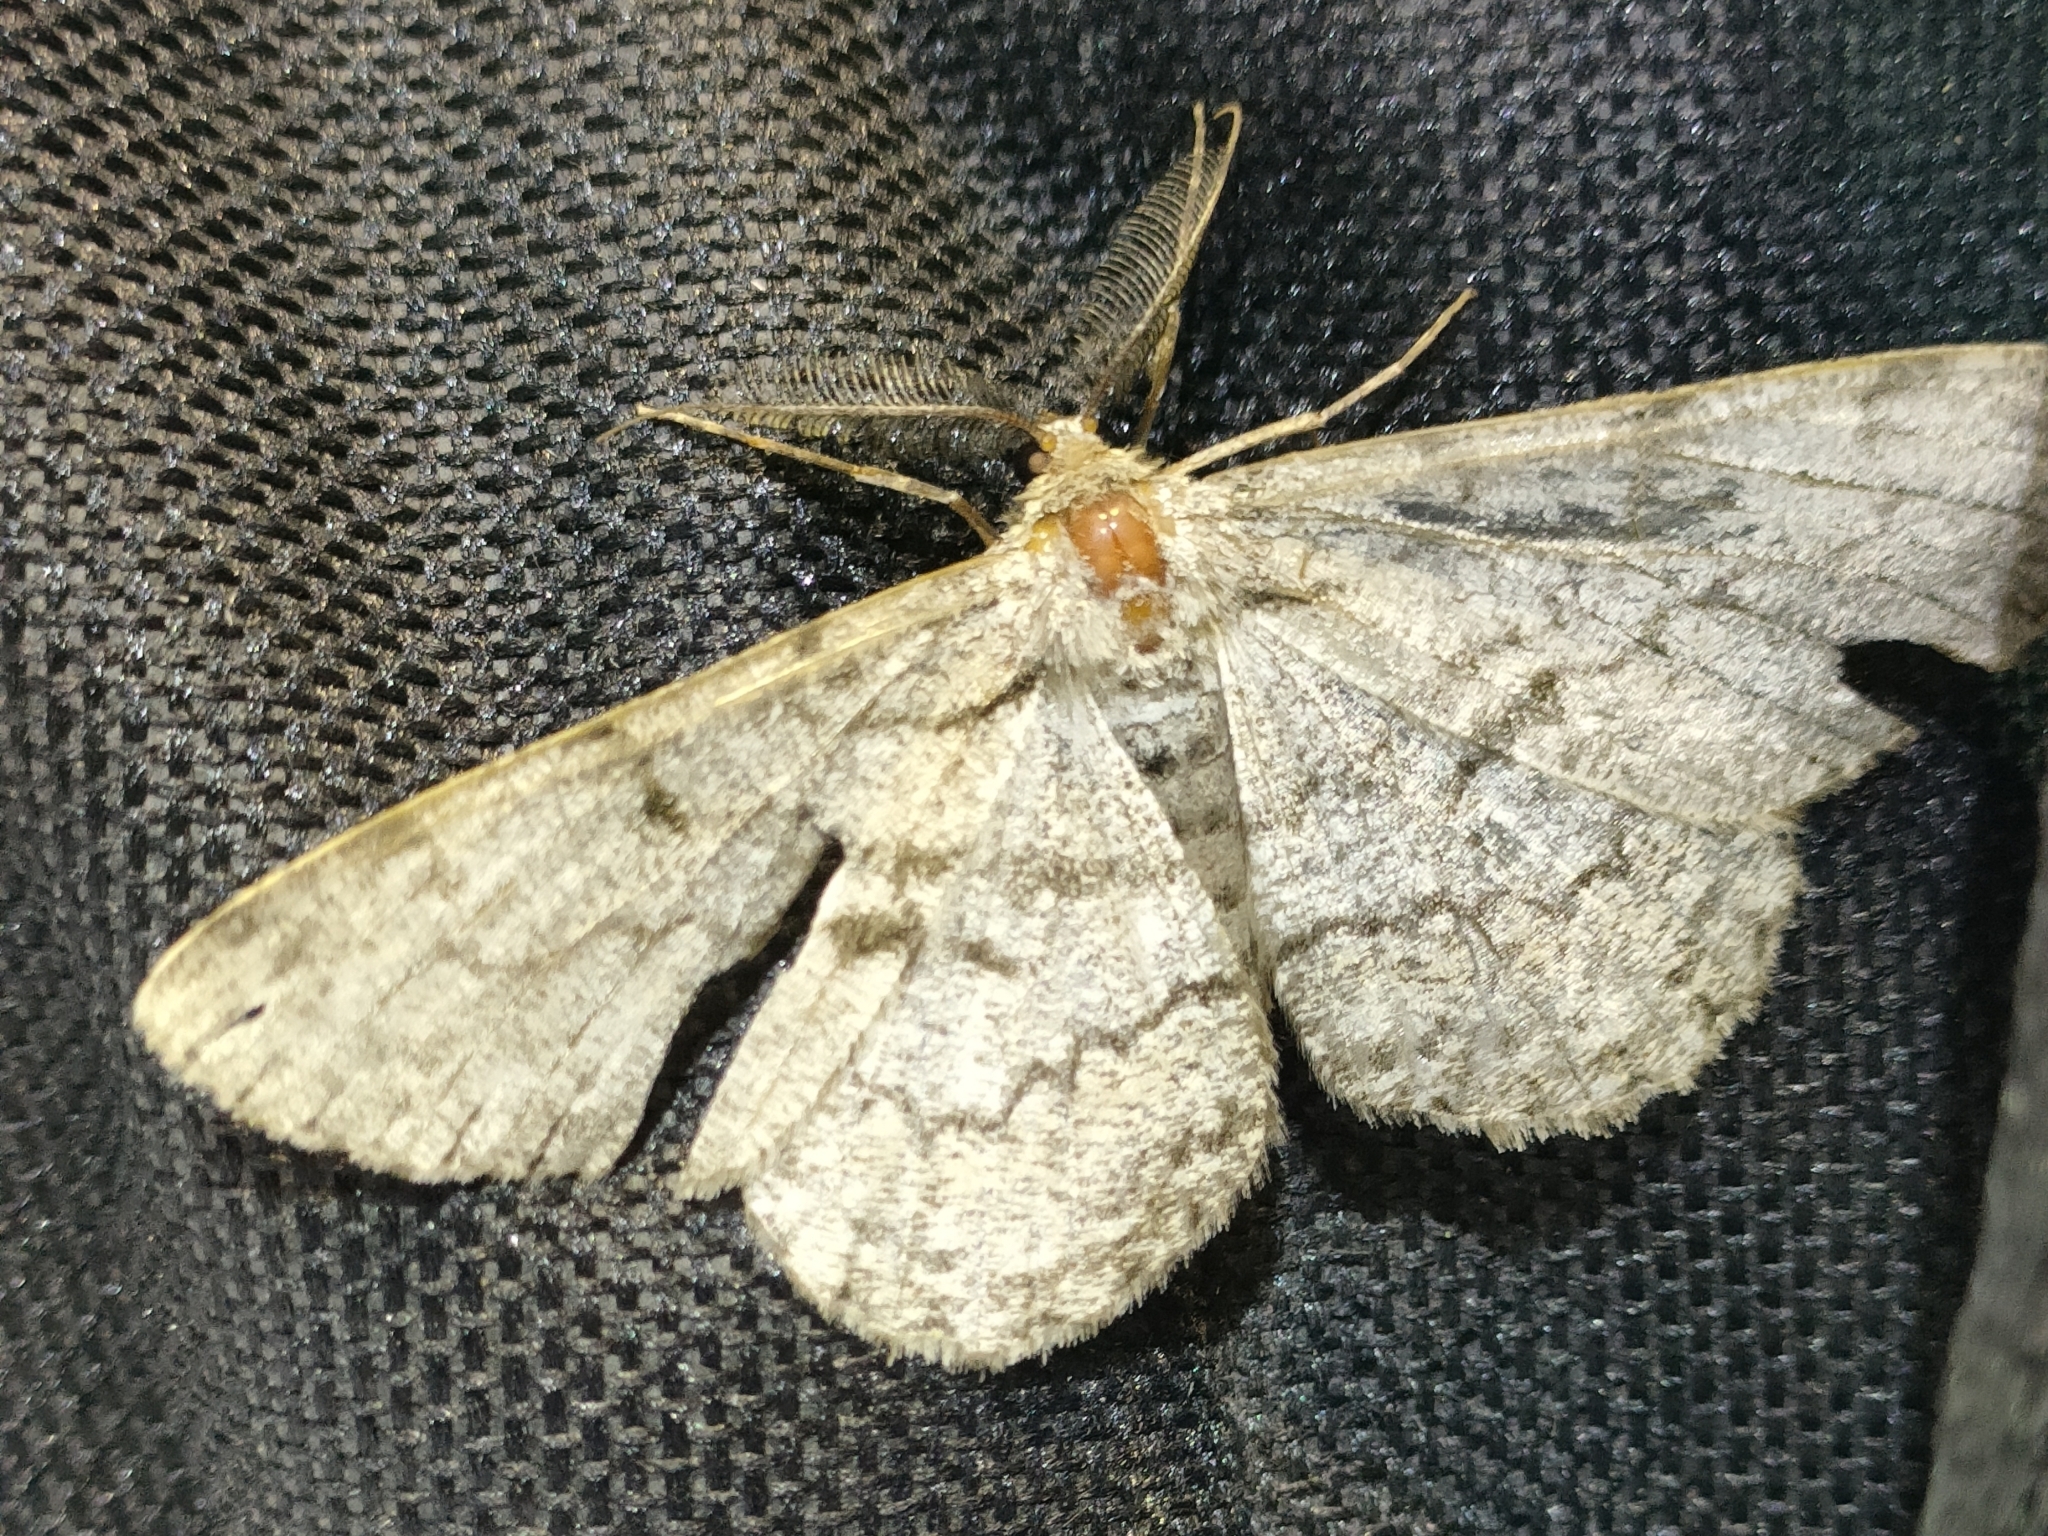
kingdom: Animalia
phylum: Arthropoda
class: Insecta
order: Lepidoptera
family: Geometridae
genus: Hypomecis
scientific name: Hypomecis roboraria
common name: Great oak beauty
